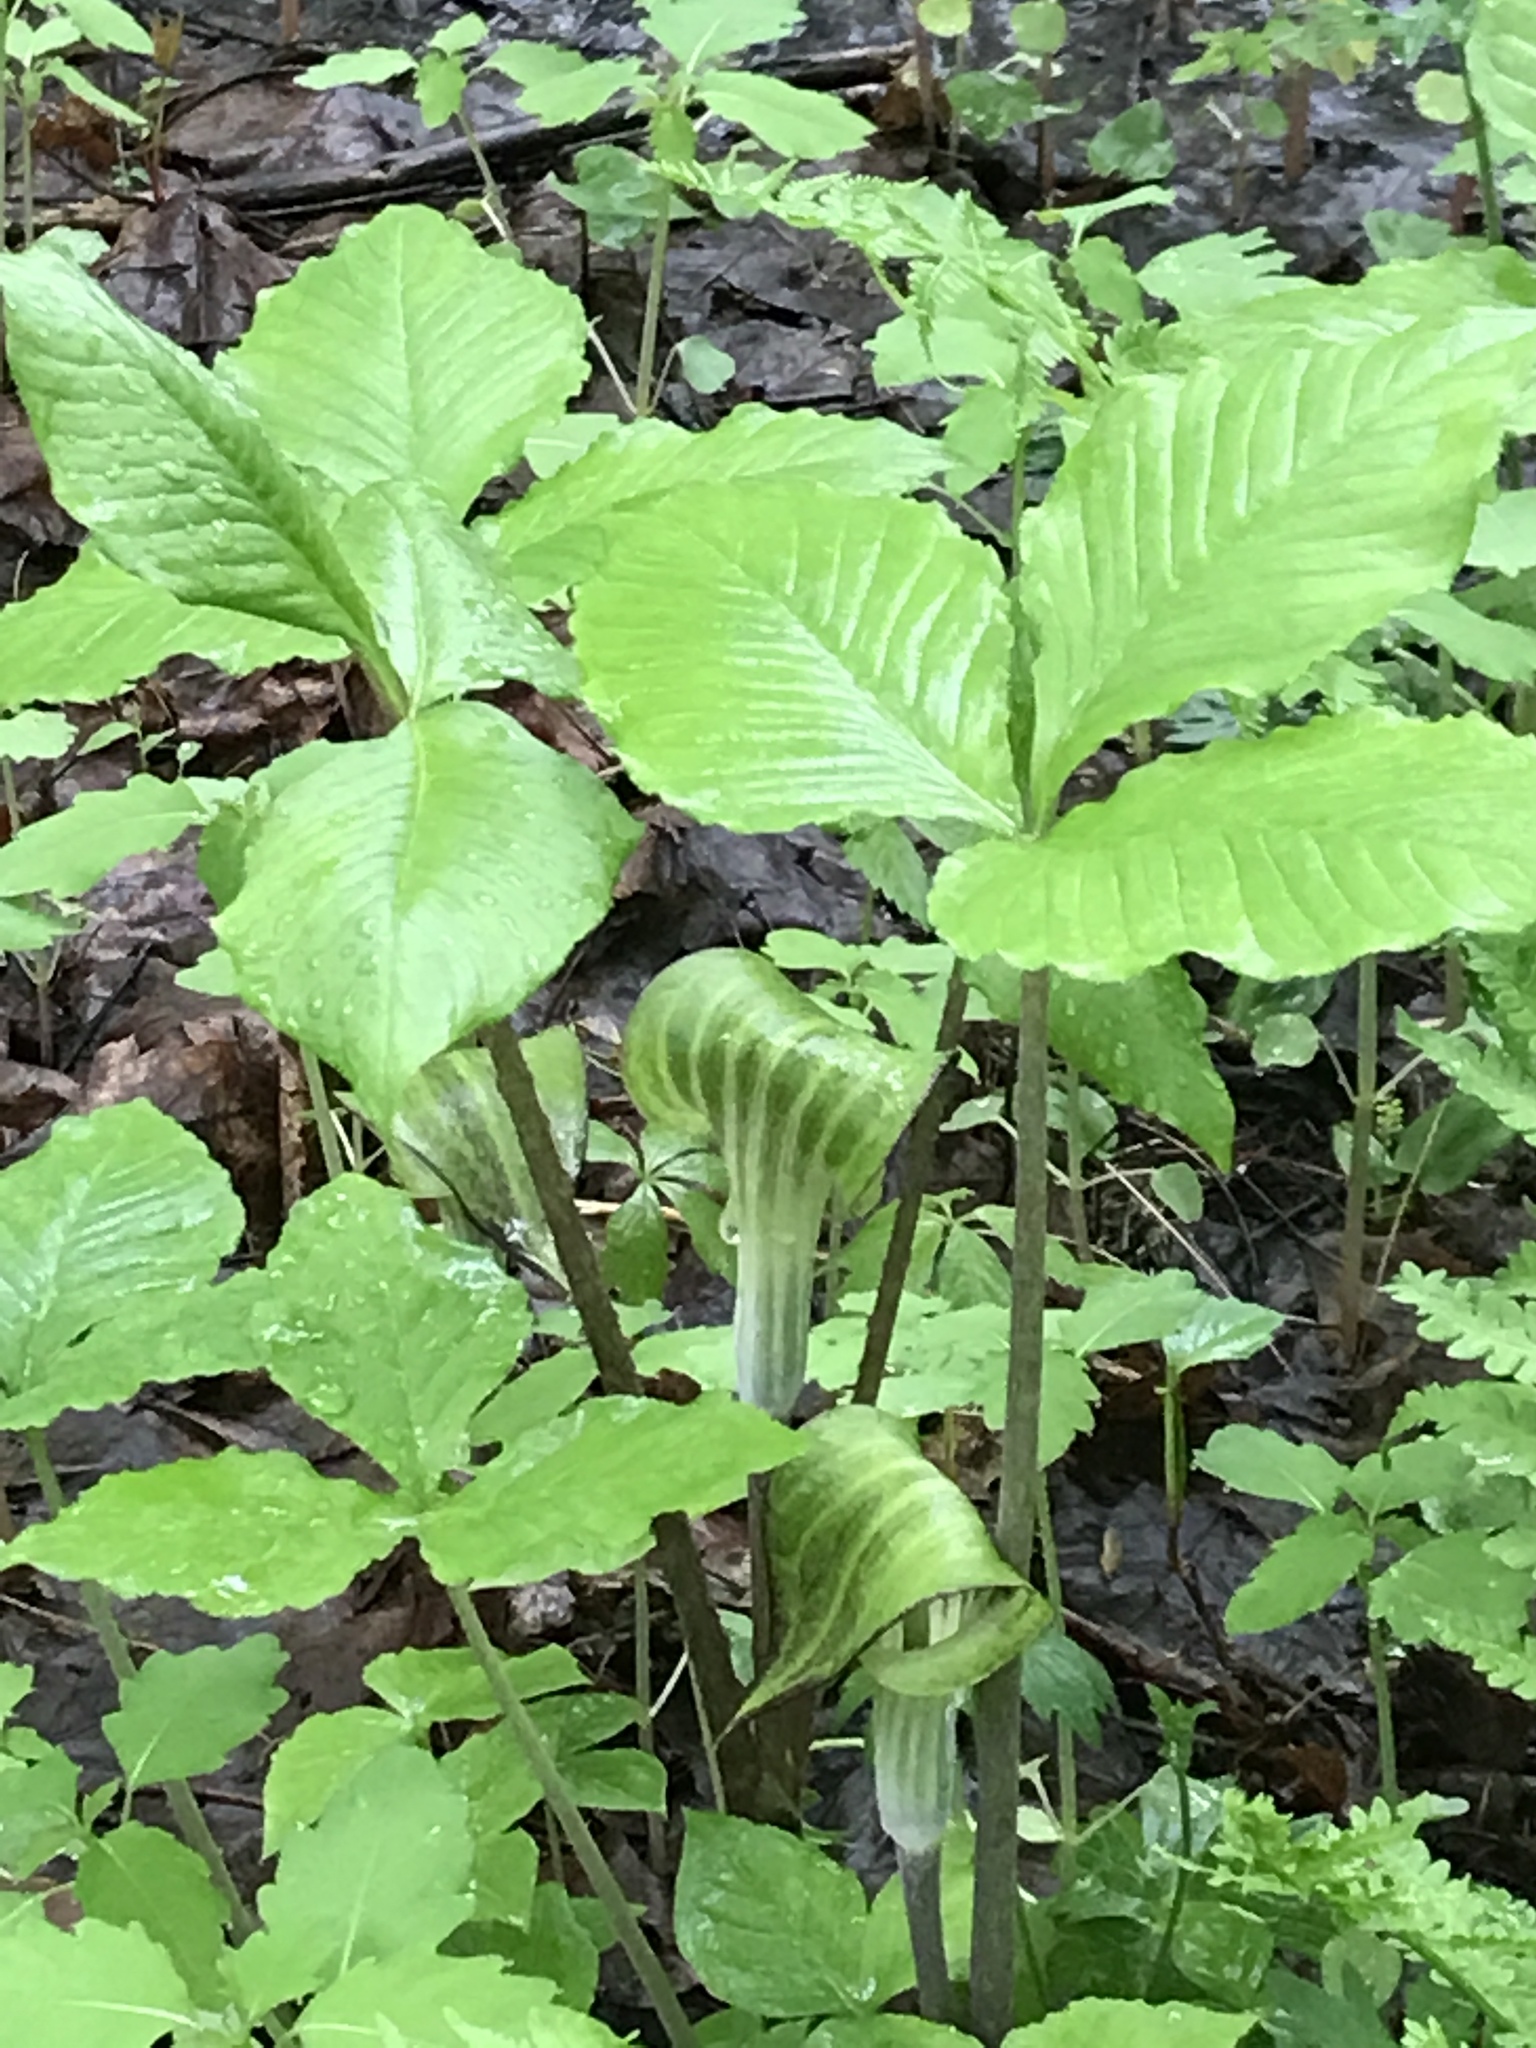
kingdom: Plantae
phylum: Tracheophyta
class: Liliopsida
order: Alismatales
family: Araceae
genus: Arisaema
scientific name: Arisaema triphyllum
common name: Jack-in-the-pulpit
